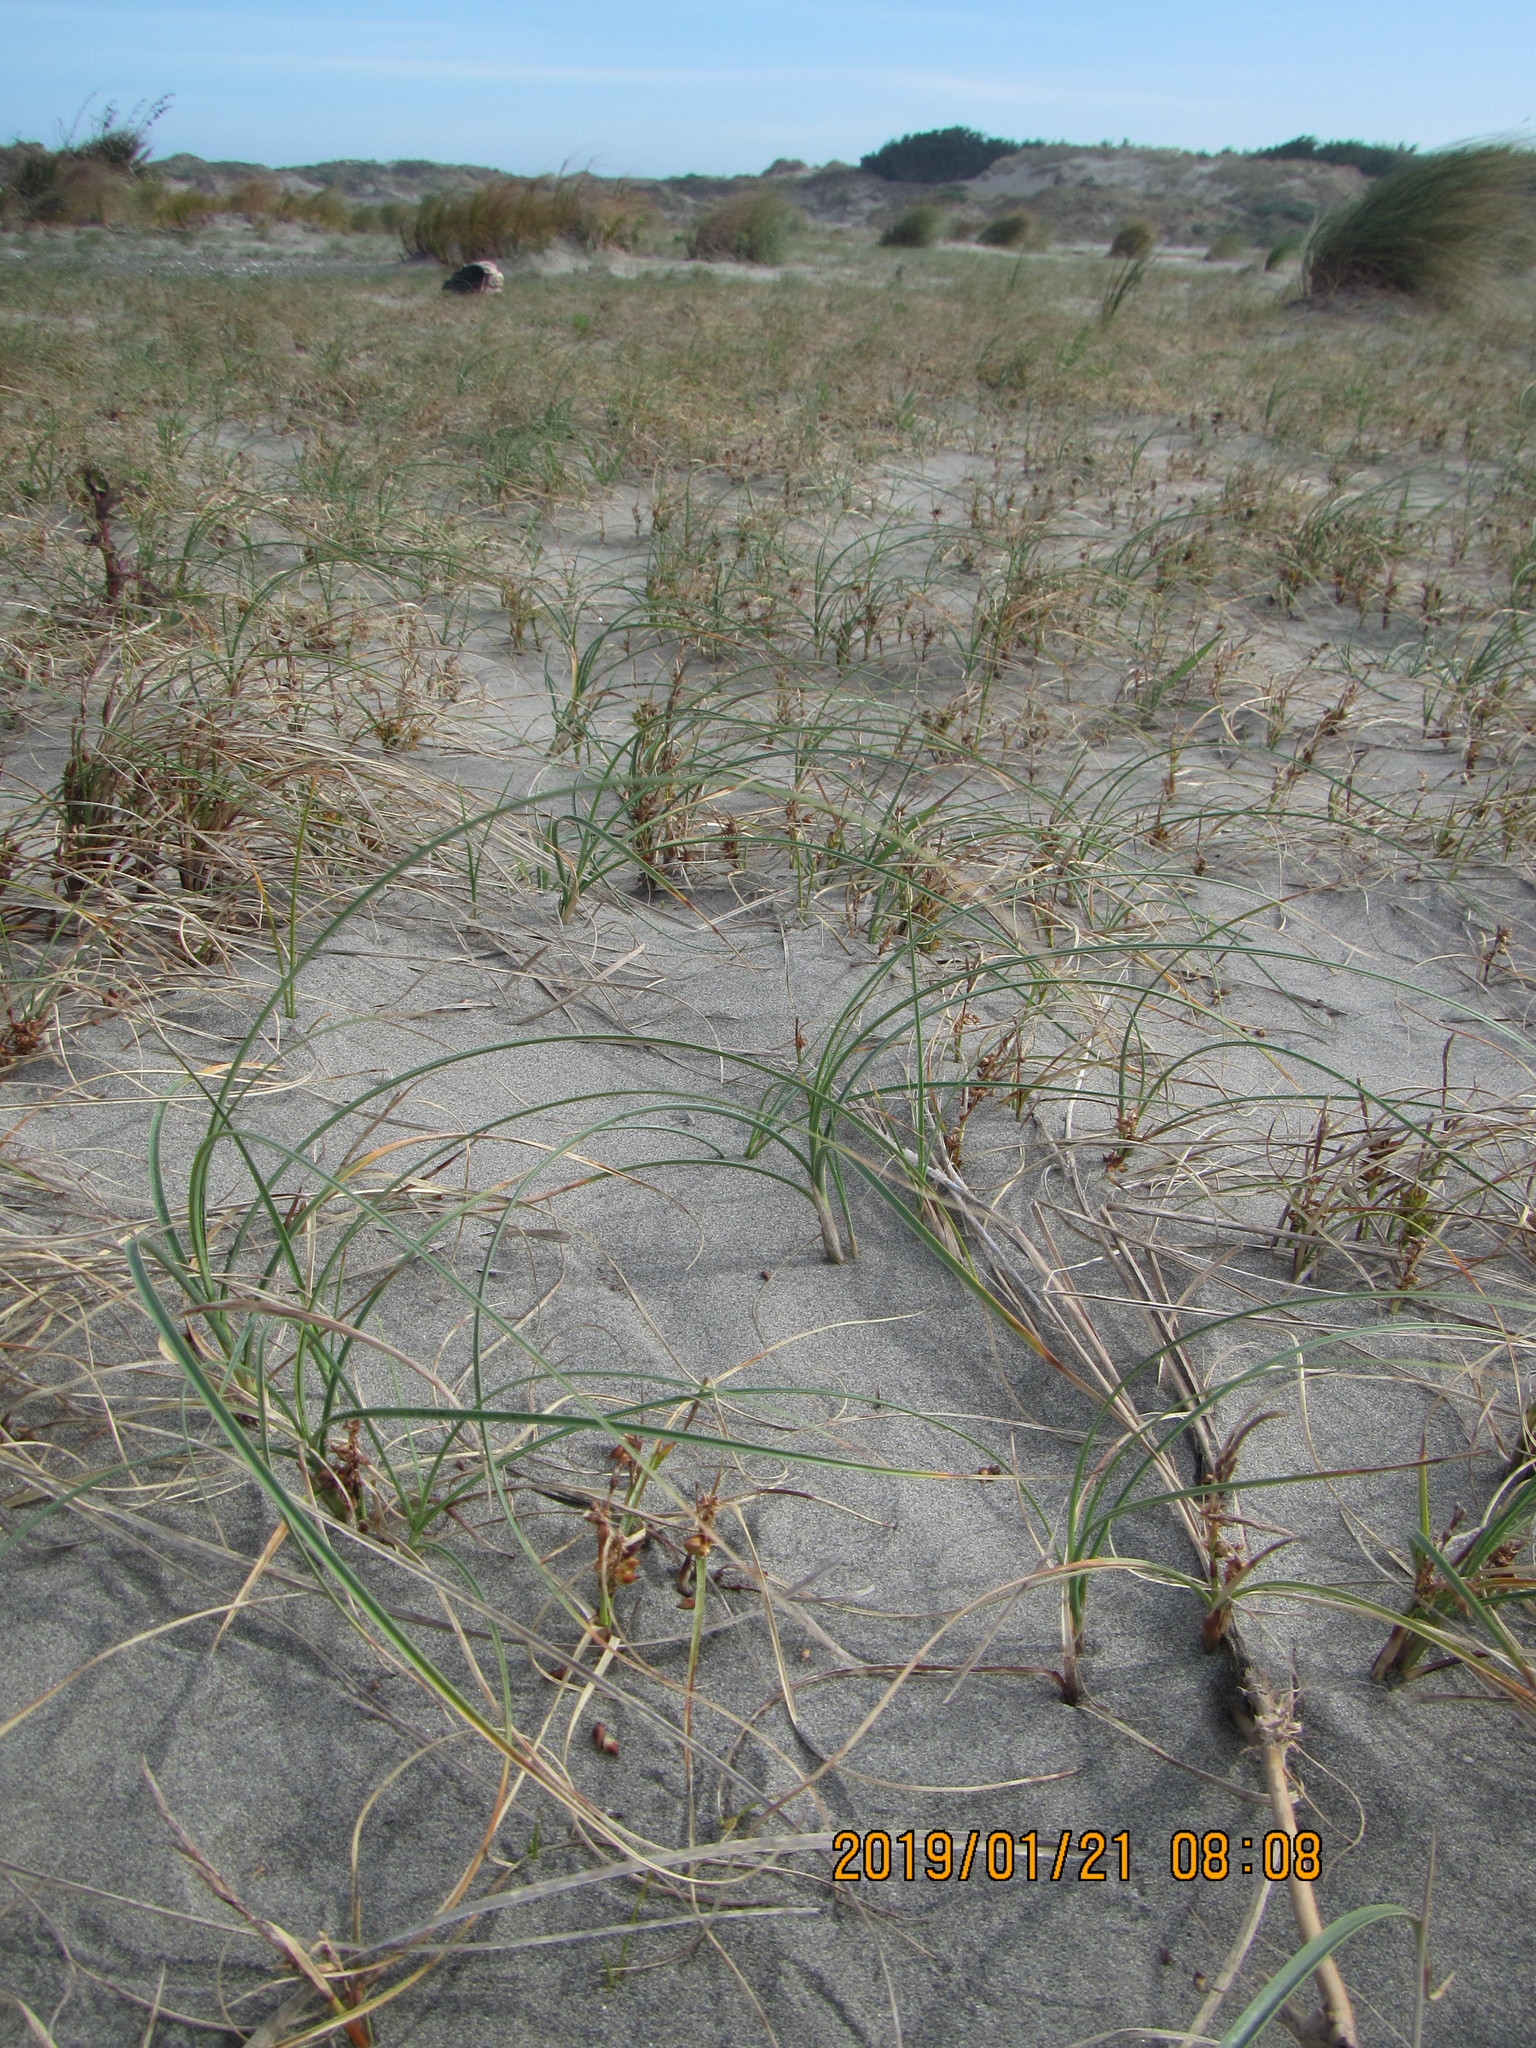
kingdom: Animalia
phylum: Arthropoda
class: Arachnida
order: Araneae
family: Lycosidae
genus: Anoteropsis
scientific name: Anoteropsis litoralis
